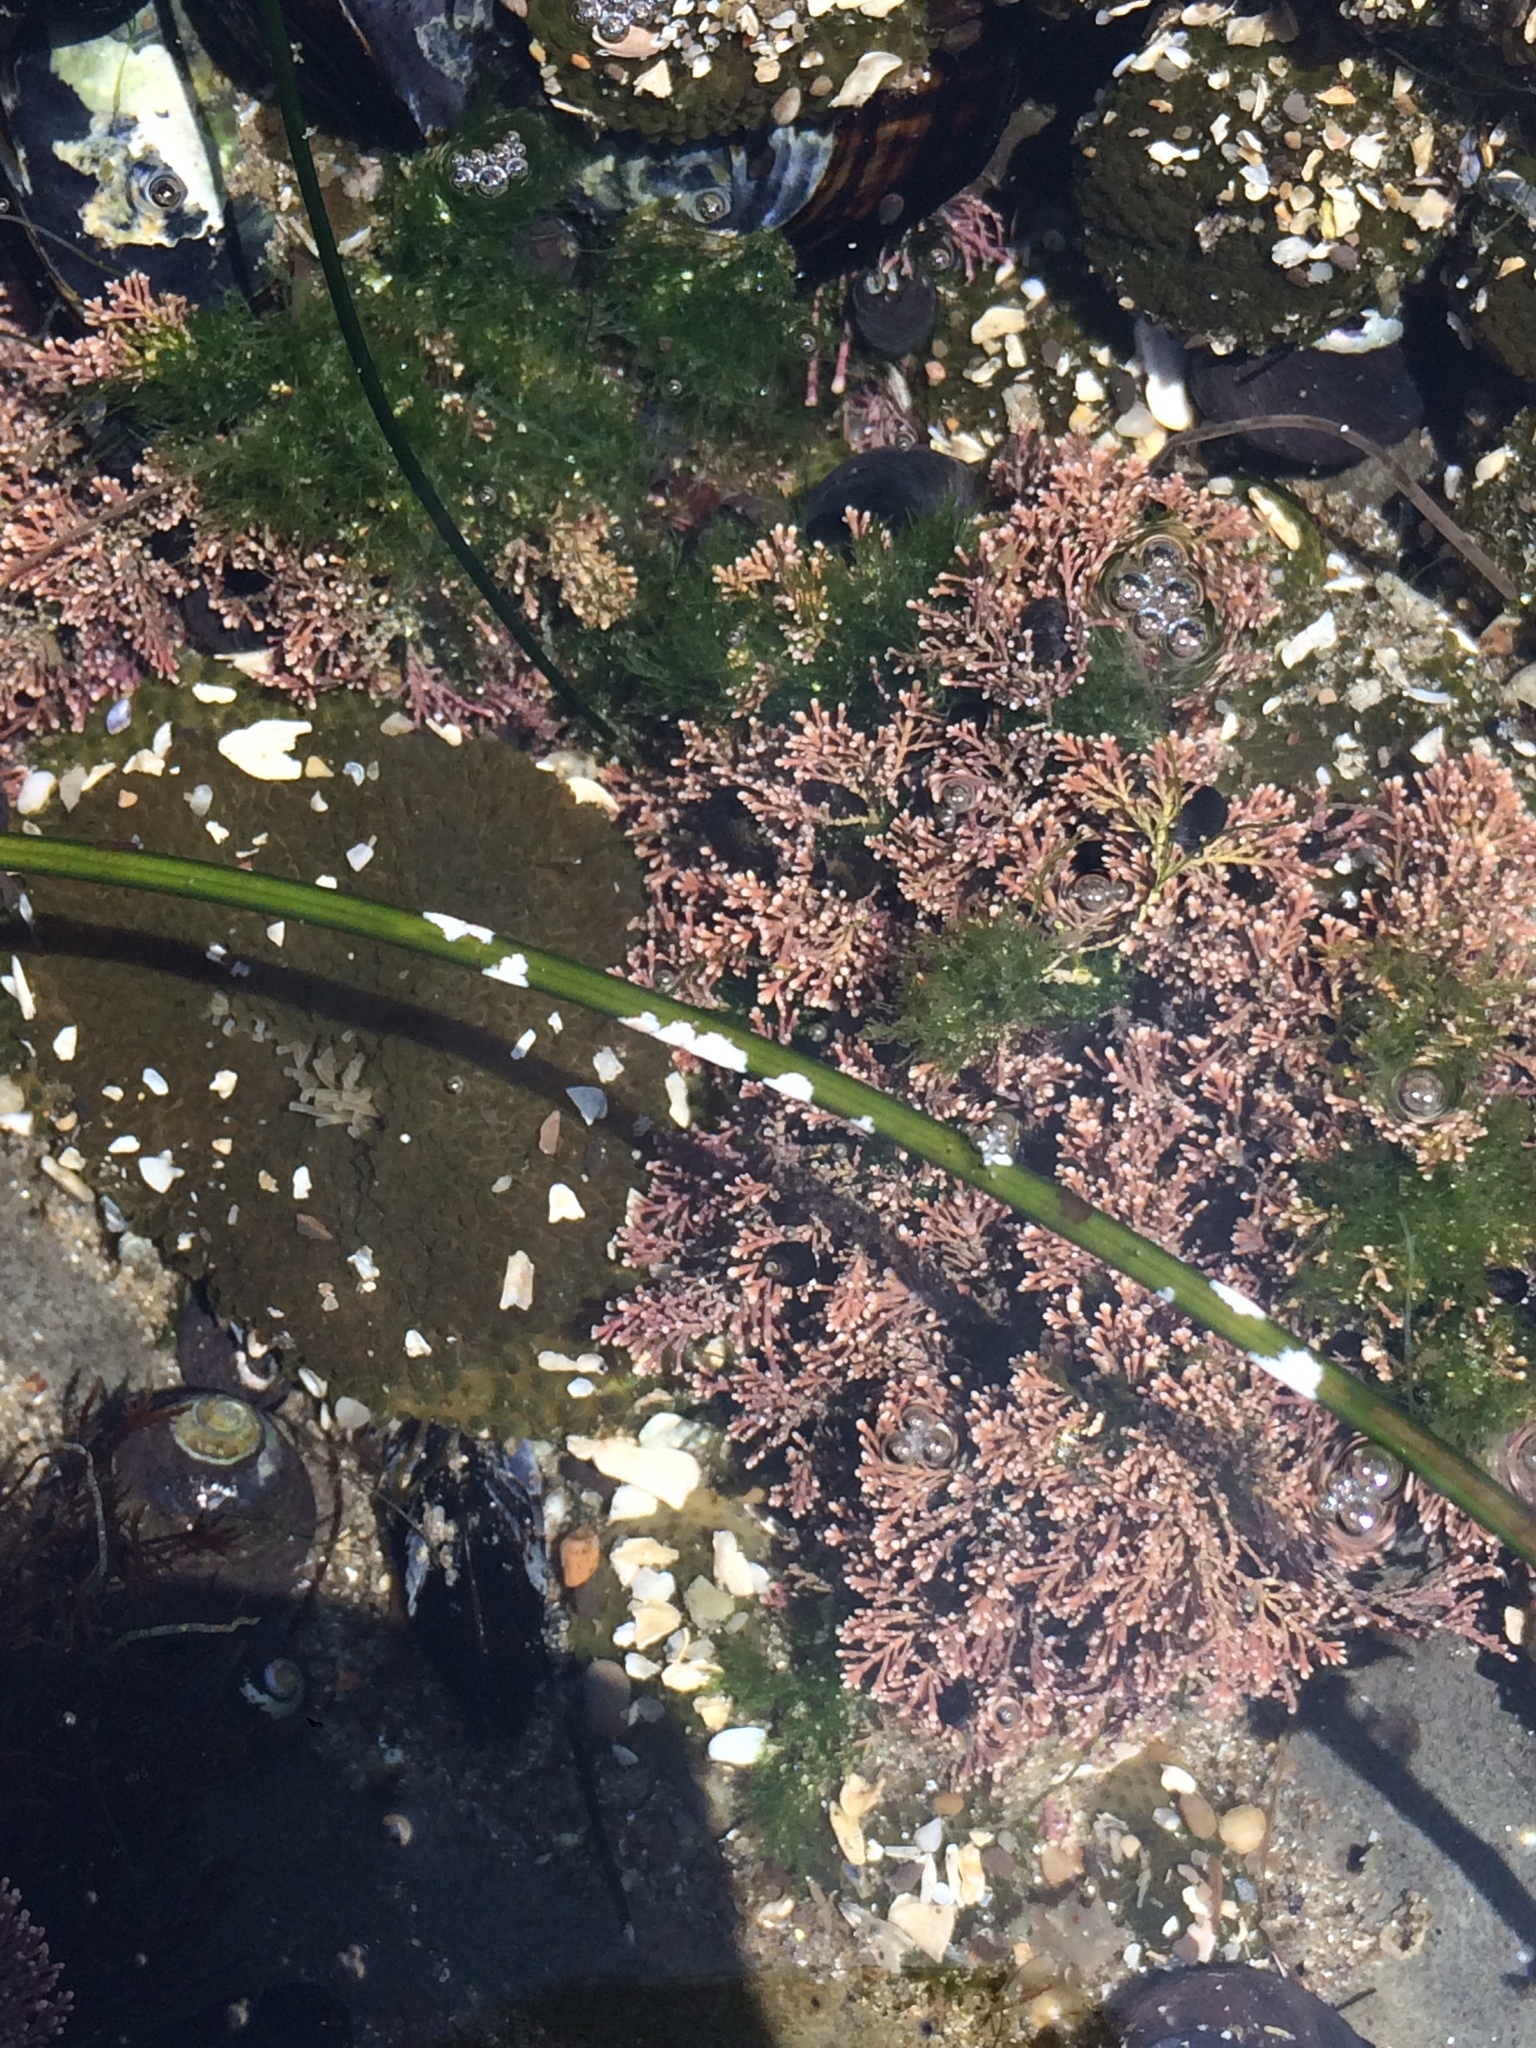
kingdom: Plantae
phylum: Rhodophyta
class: Florideophyceae
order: Corallinales
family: Corallinaceae
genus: Corallina
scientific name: Corallina officinalis
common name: Coral weed
